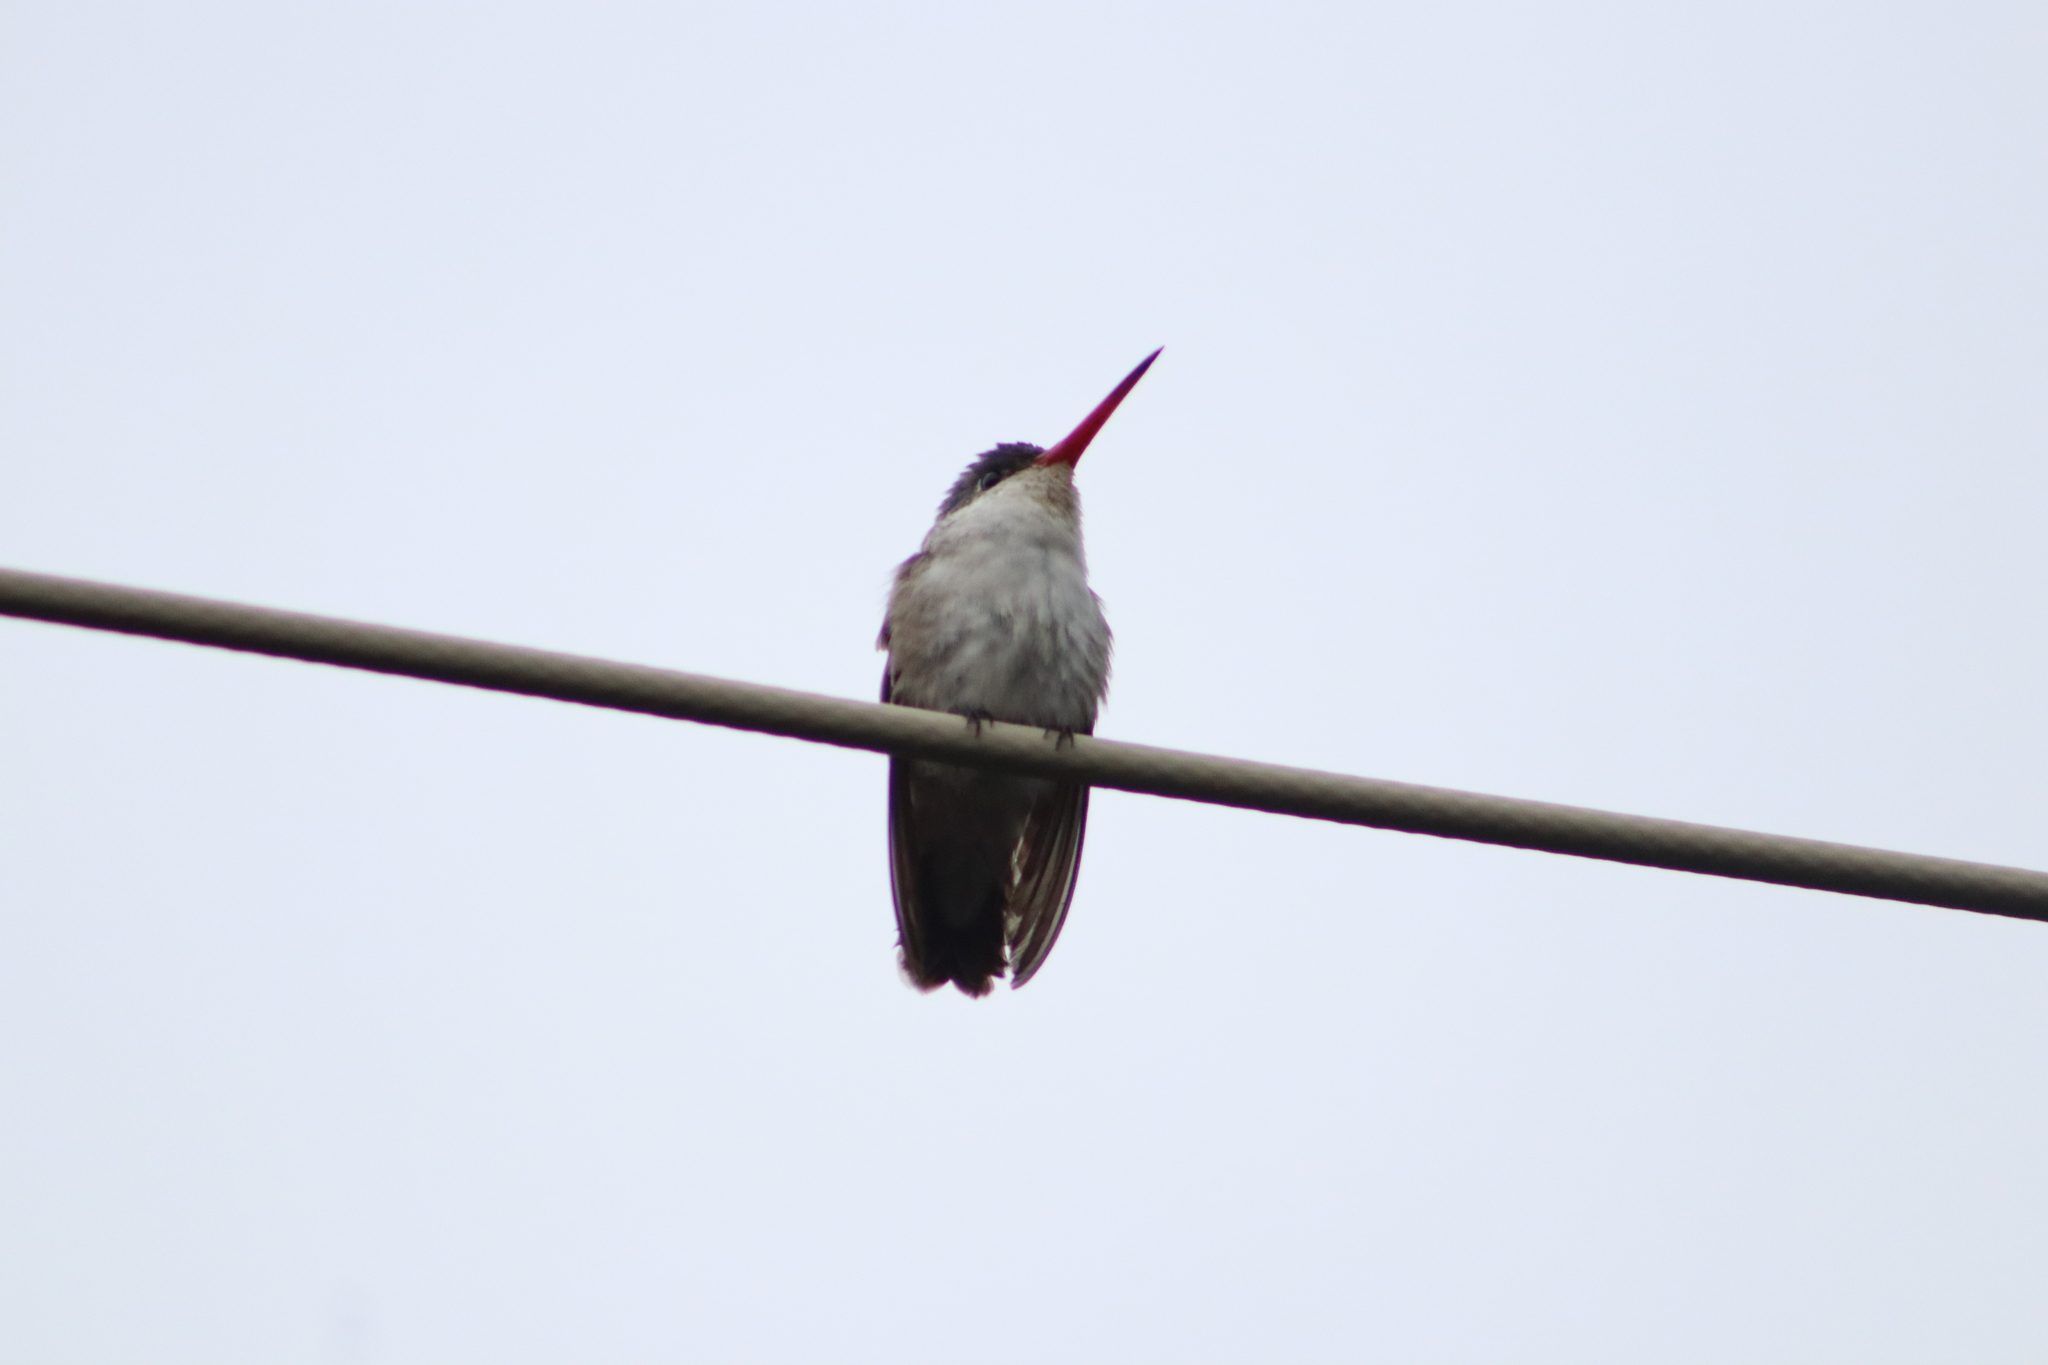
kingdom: Animalia
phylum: Chordata
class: Aves
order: Apodiformes
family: Trochilidae
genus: Leucolia
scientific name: Leucolia violiceps
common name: Violet-crowned hummingbird
